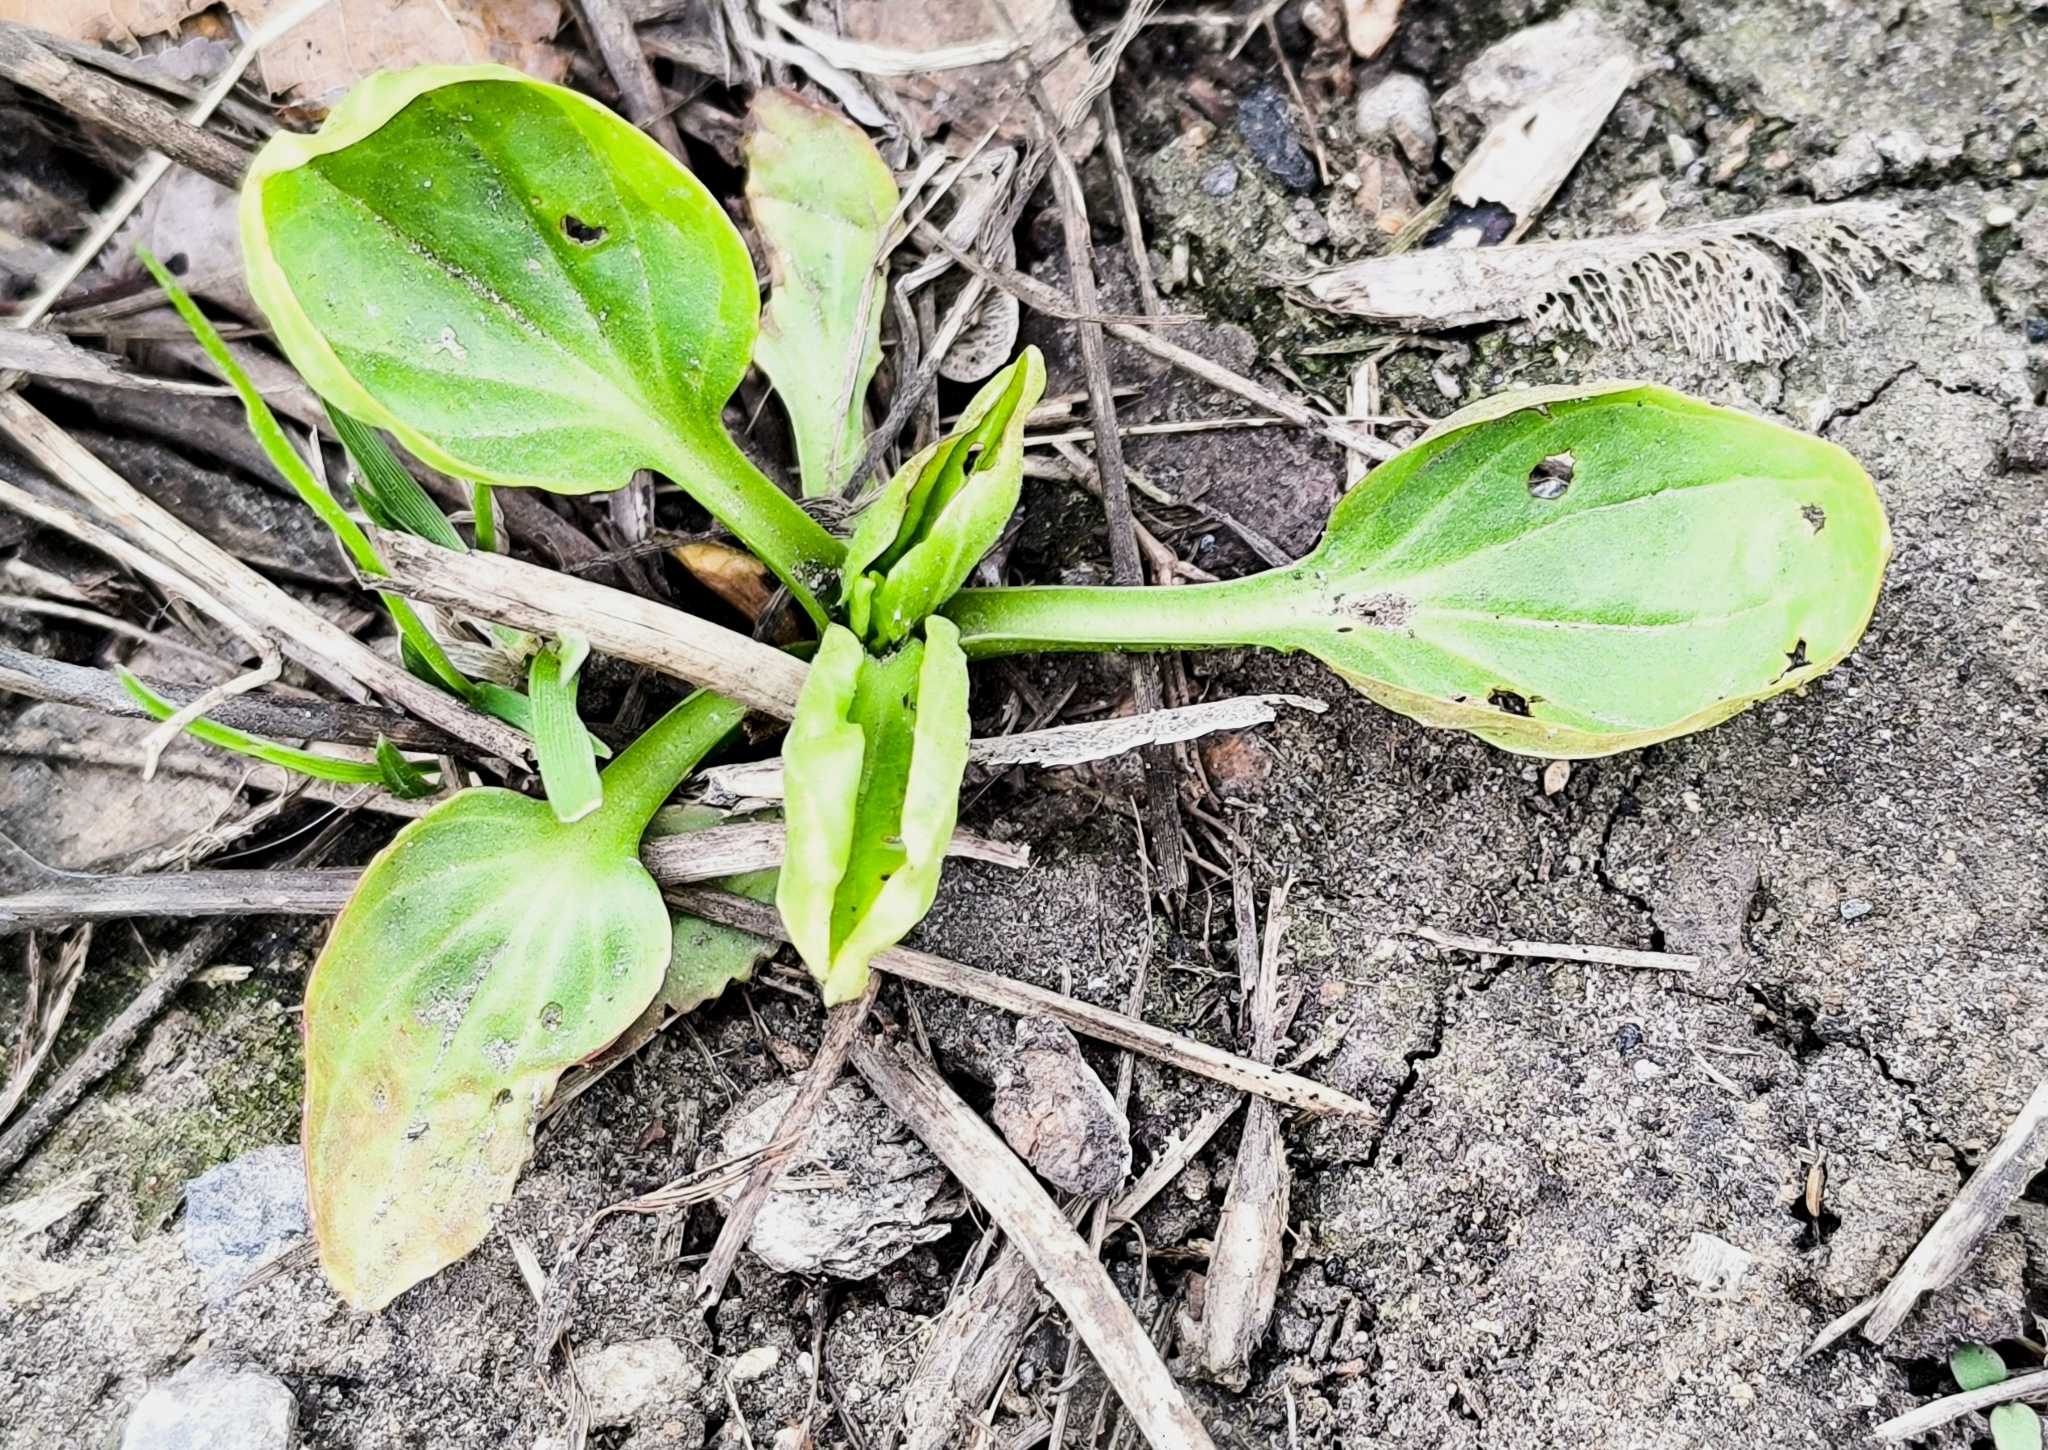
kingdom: Plantae
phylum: Tracheophyta
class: Magnoliopsida
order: Lamiales
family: Plantaginaceae
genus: Plantago
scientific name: Plantago major
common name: Common plantain
